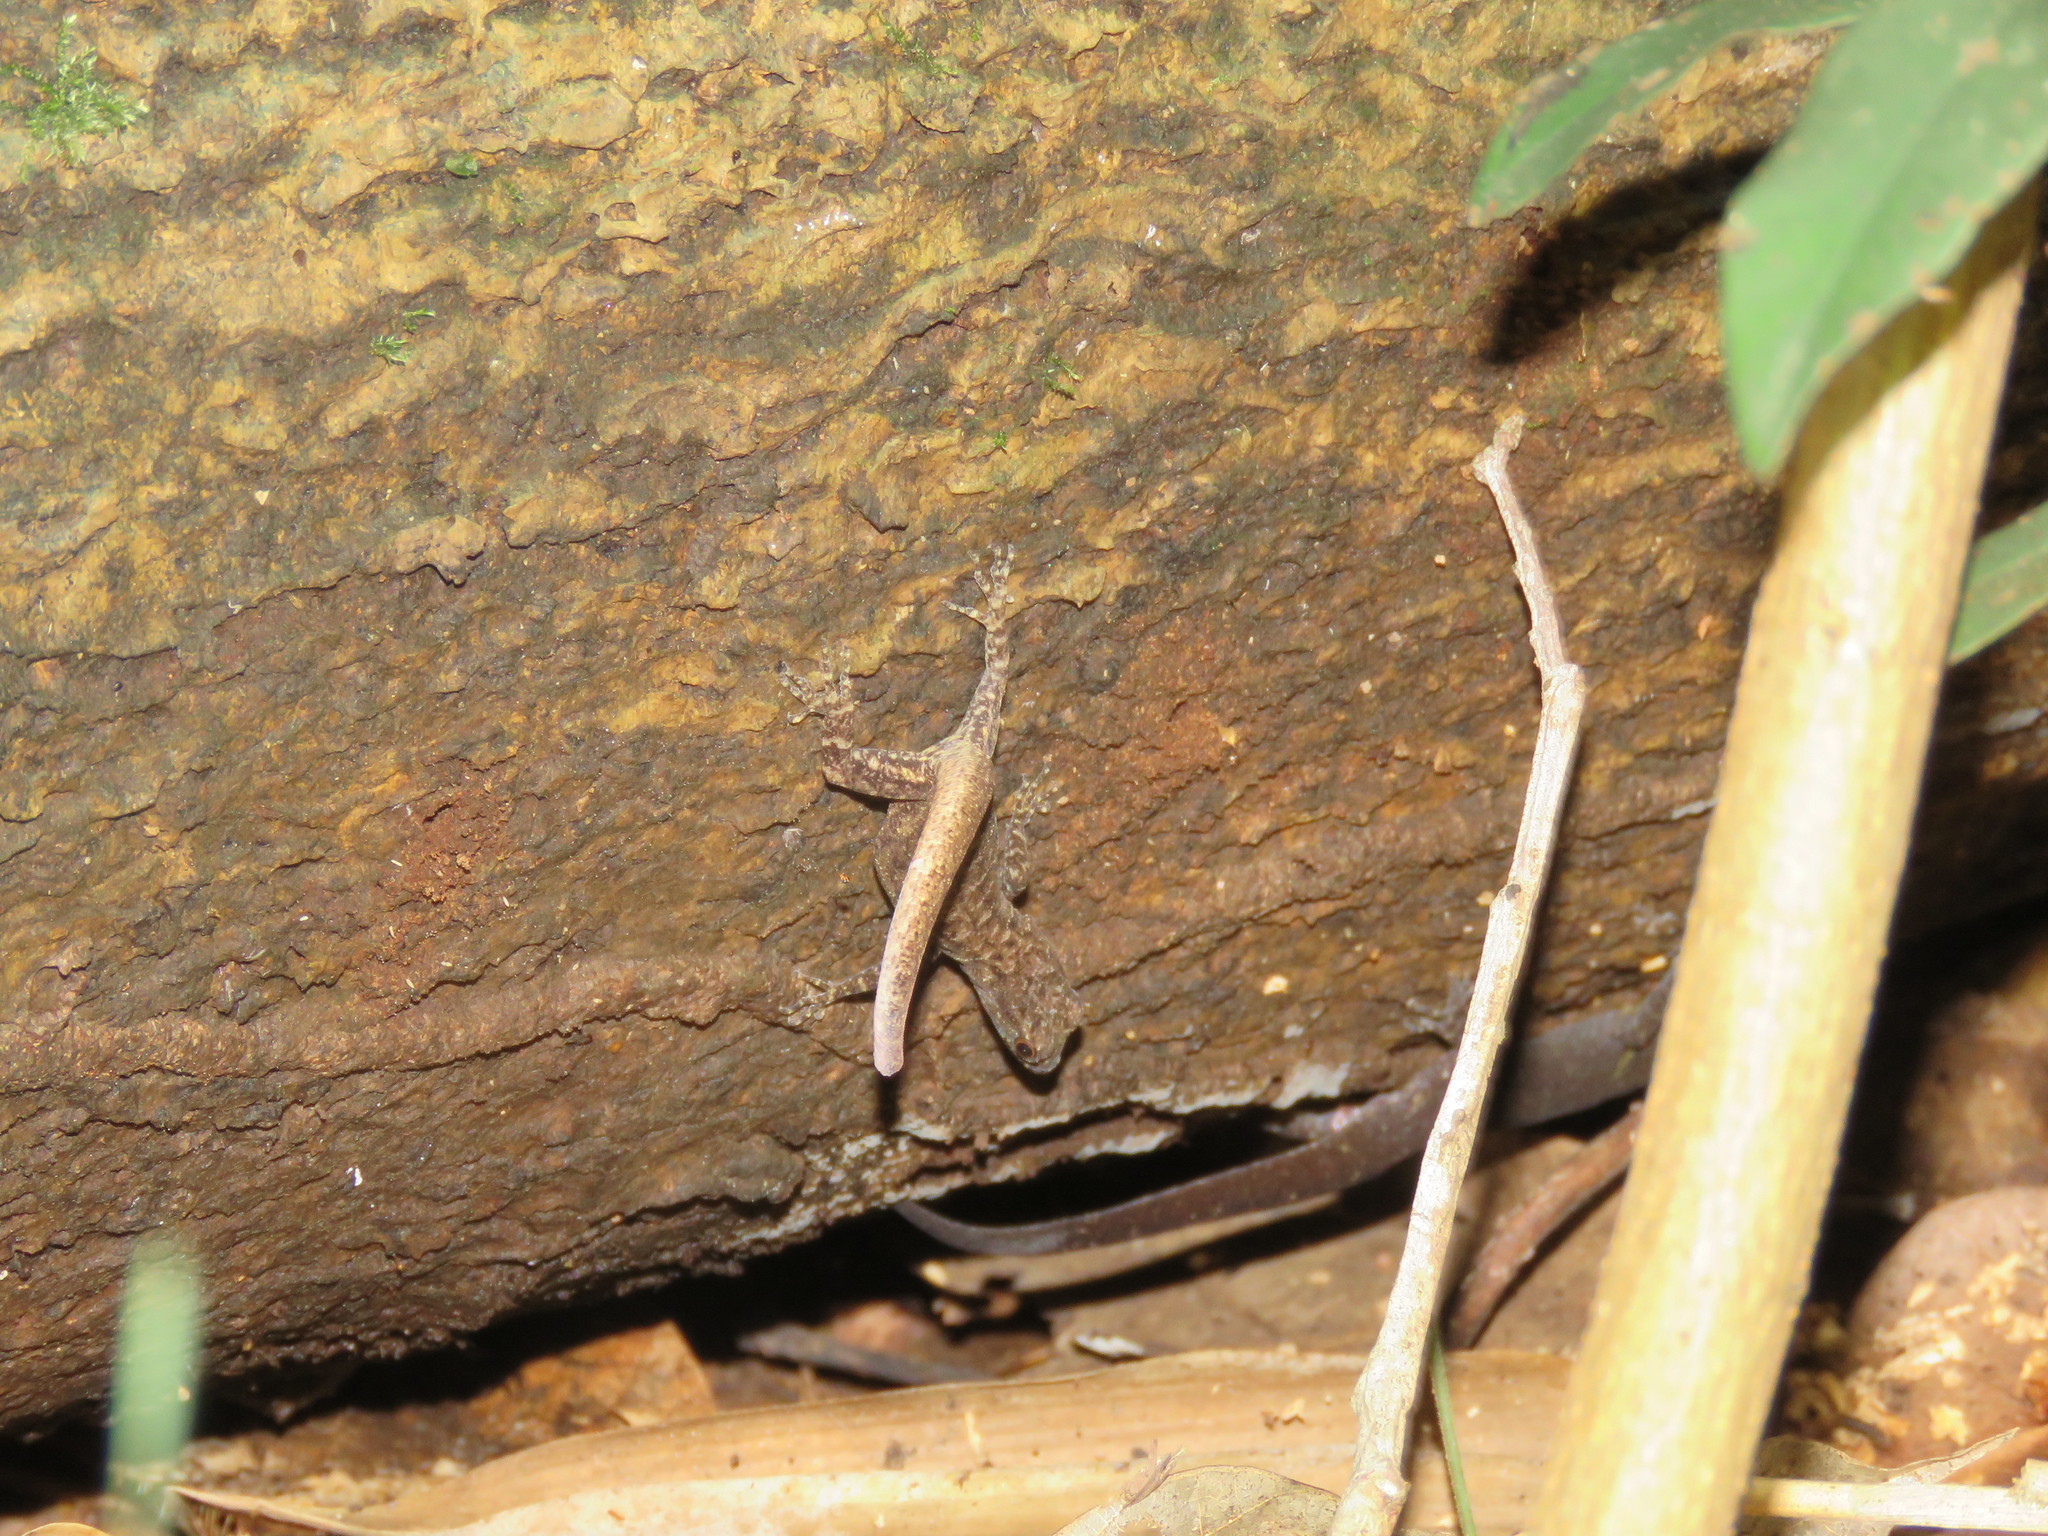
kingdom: Animalia
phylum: Chordata
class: Squamata
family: Sphaerodactylidae
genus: Gonatodes
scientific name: Gonatodes humeralis
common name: South american clawed gecko
